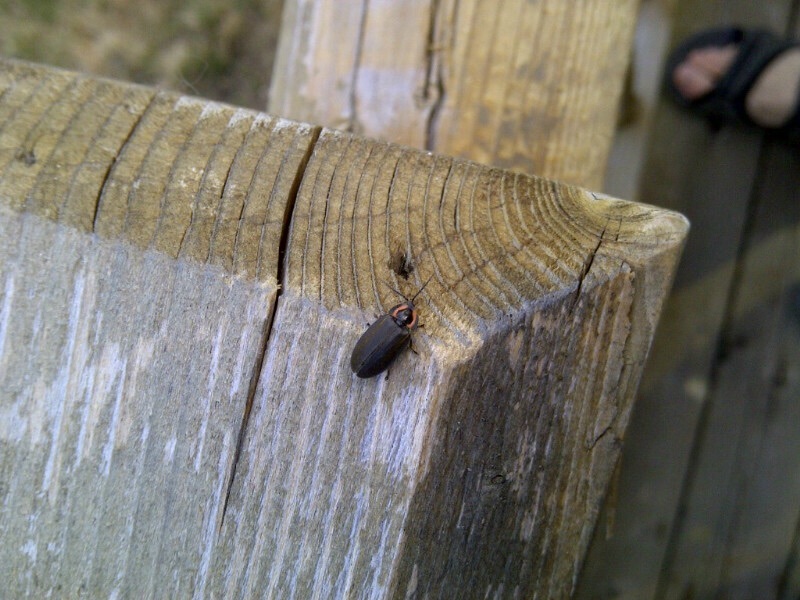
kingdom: Animalia
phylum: Arthropoda
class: Insecta
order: Coleoptera
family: Lampyridae
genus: Photinus
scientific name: Photinus corrusca
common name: Winter firefly
